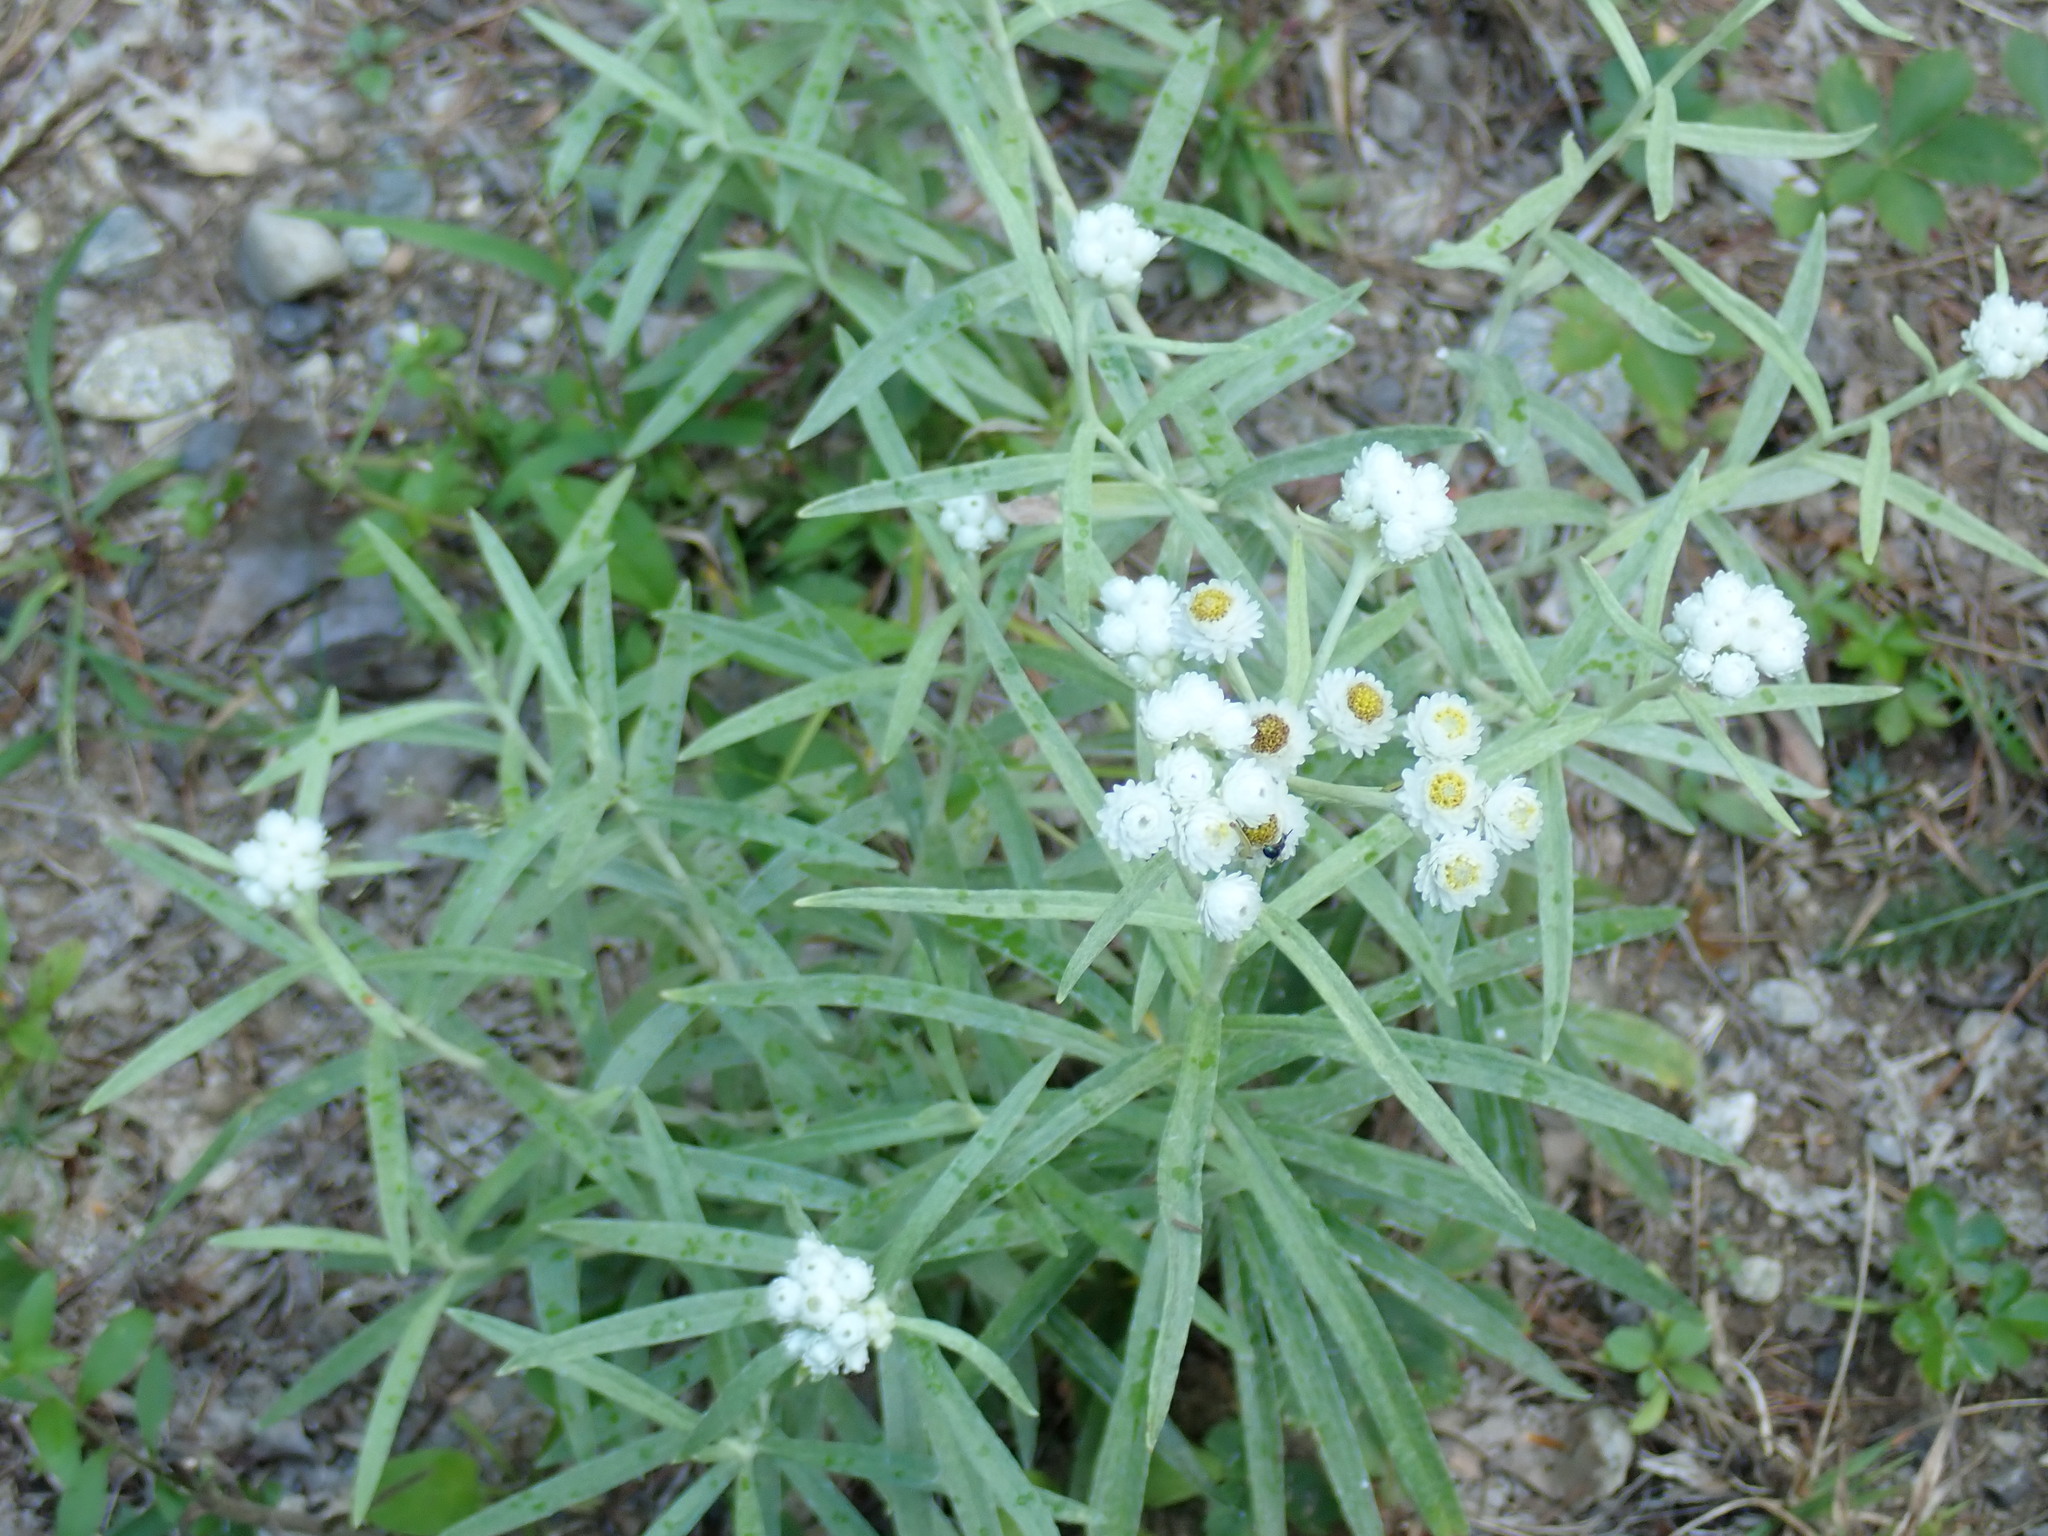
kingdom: Plantae
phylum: Tracheophyta
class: Magnoliopsida
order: Asterales
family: Asteraceae
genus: Anaphalis
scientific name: Anaphalis margaritacea
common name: Pearly everlasting
